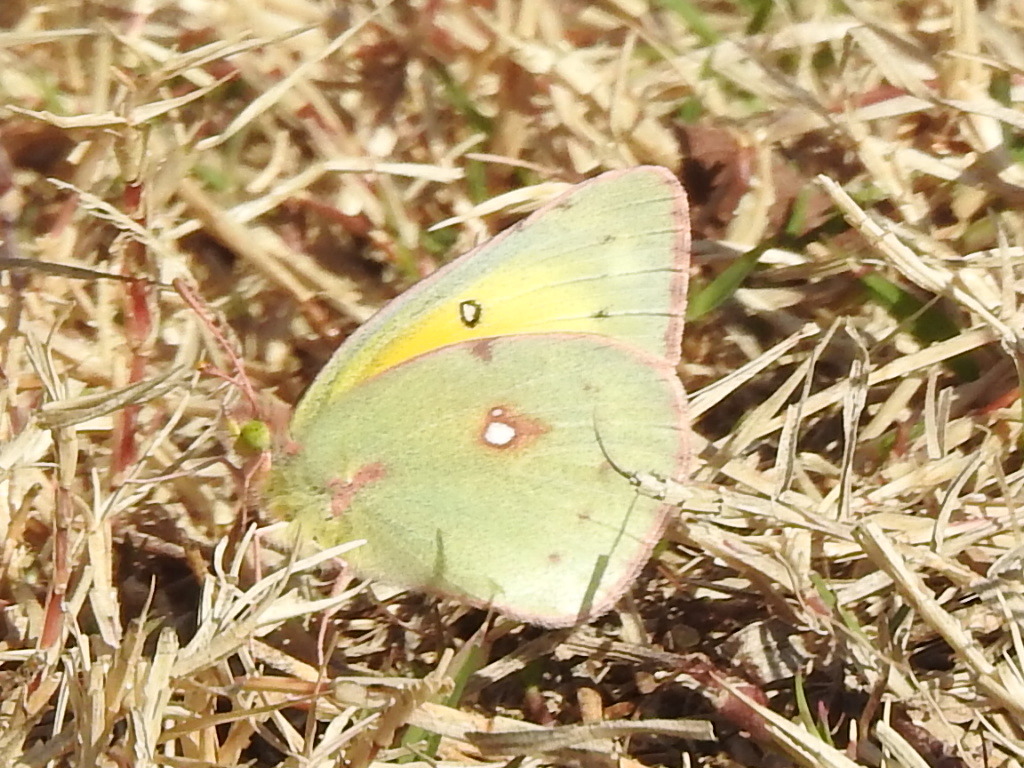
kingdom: Animalia
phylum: Arthropoda
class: Insecta
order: Lepidoptera
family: Pieridae
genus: Colias
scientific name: Colias eurytheme
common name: Alfalfa butterfly
